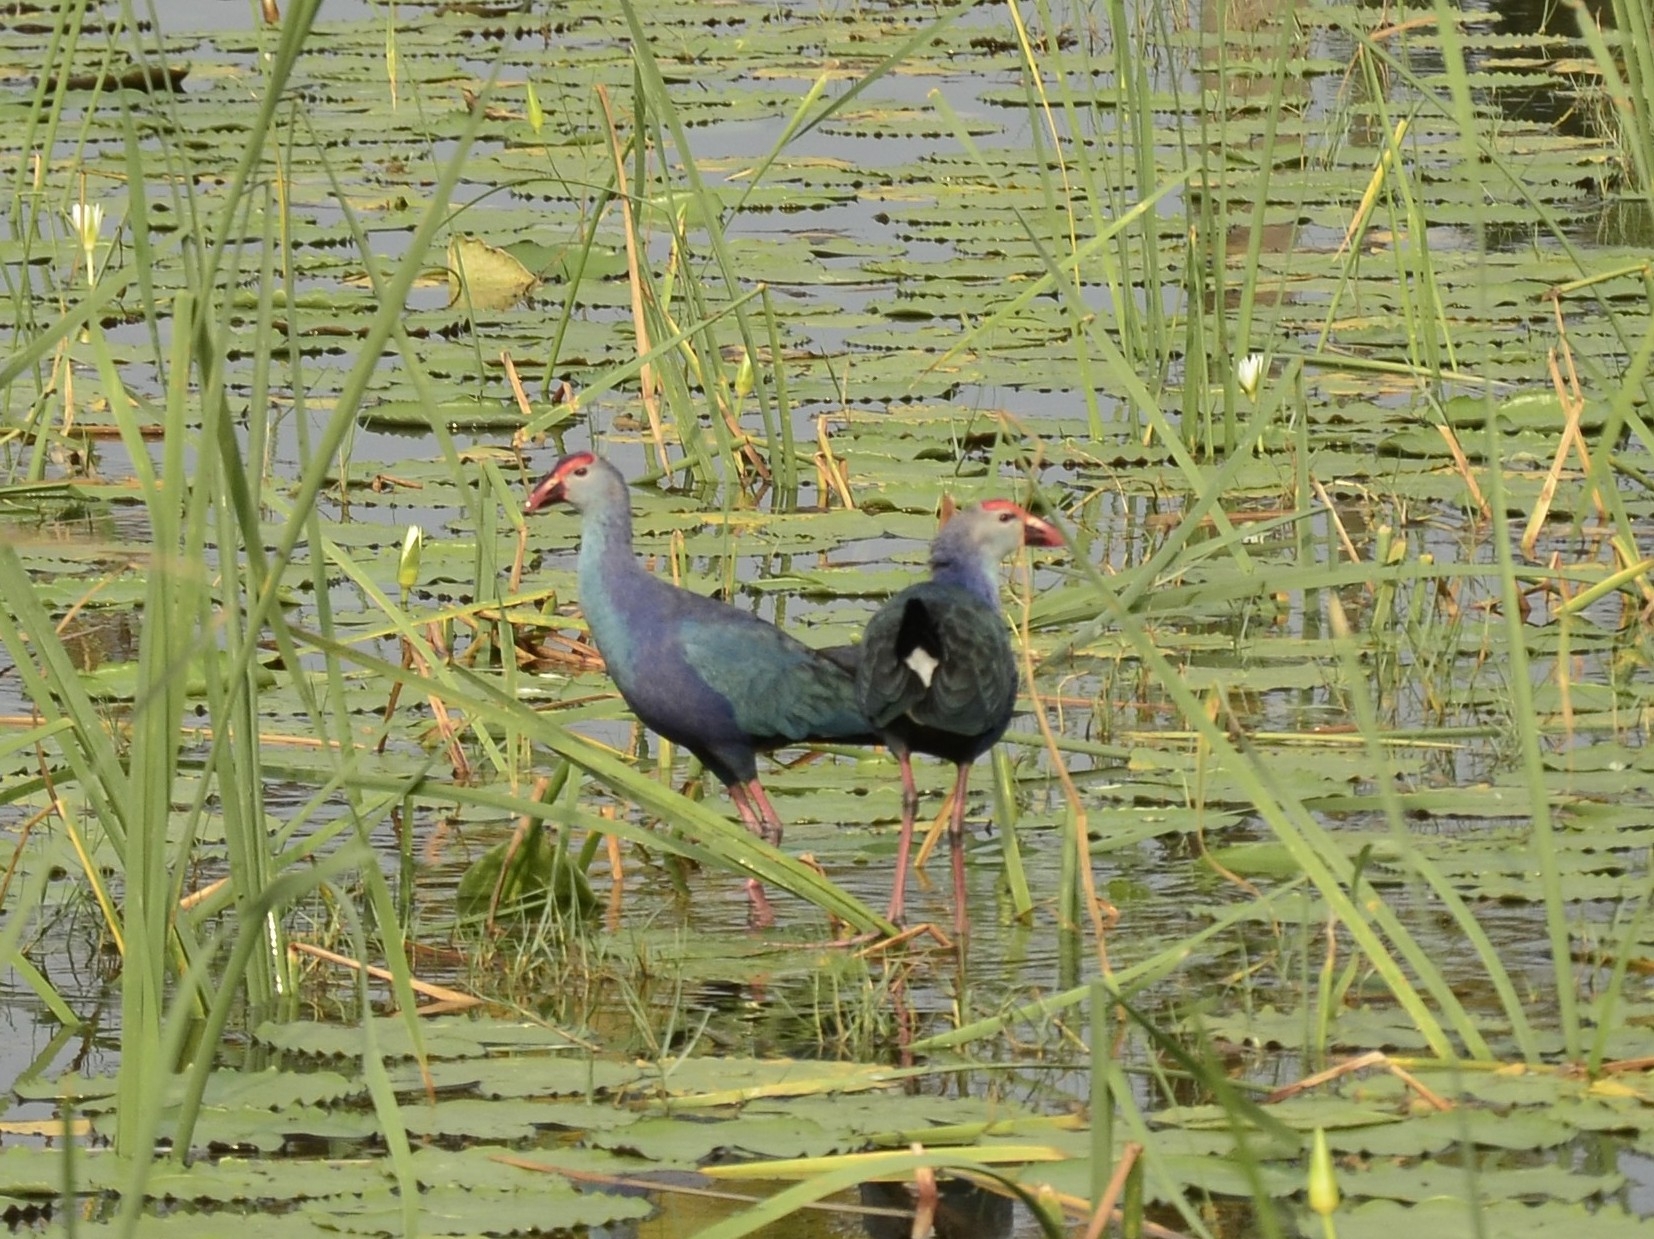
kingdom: Animalia
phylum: Chordata
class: Aves
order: Gruiformes
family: Rallidae
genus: Porphyrio
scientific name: Porphyrio porphyrio
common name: Purple swamphen
